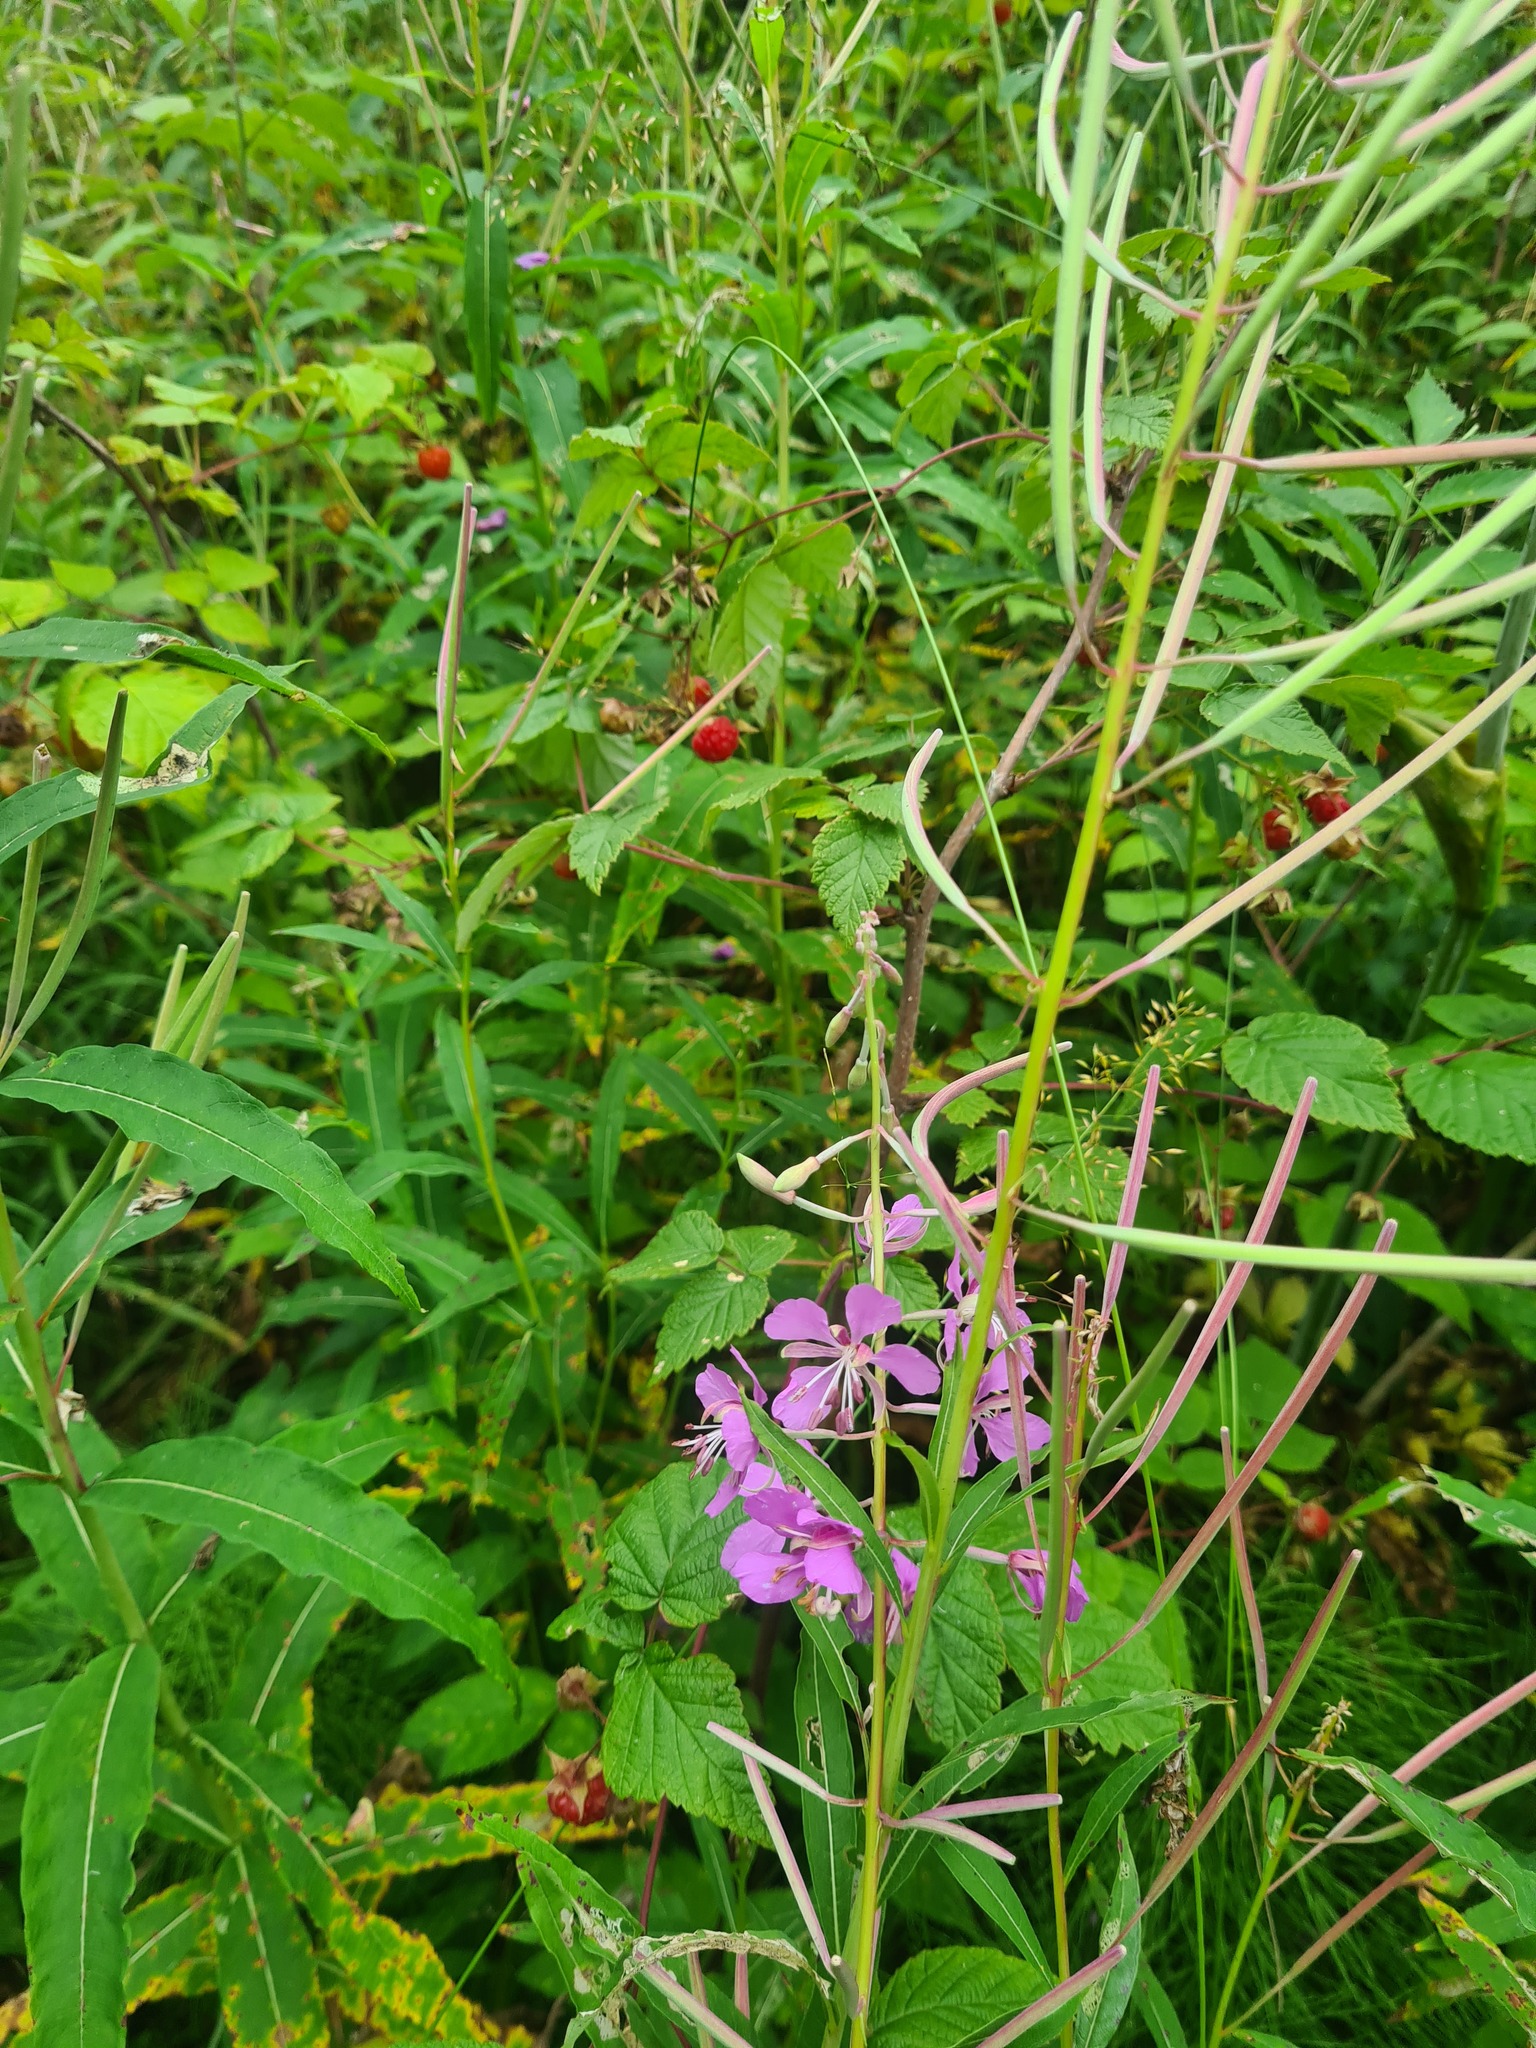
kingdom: Plantae
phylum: Tracheophyta
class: Magnoliopsida
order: Rosales
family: Rosaceae
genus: Rubus
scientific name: Rubus idaeus
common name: Raspberry
